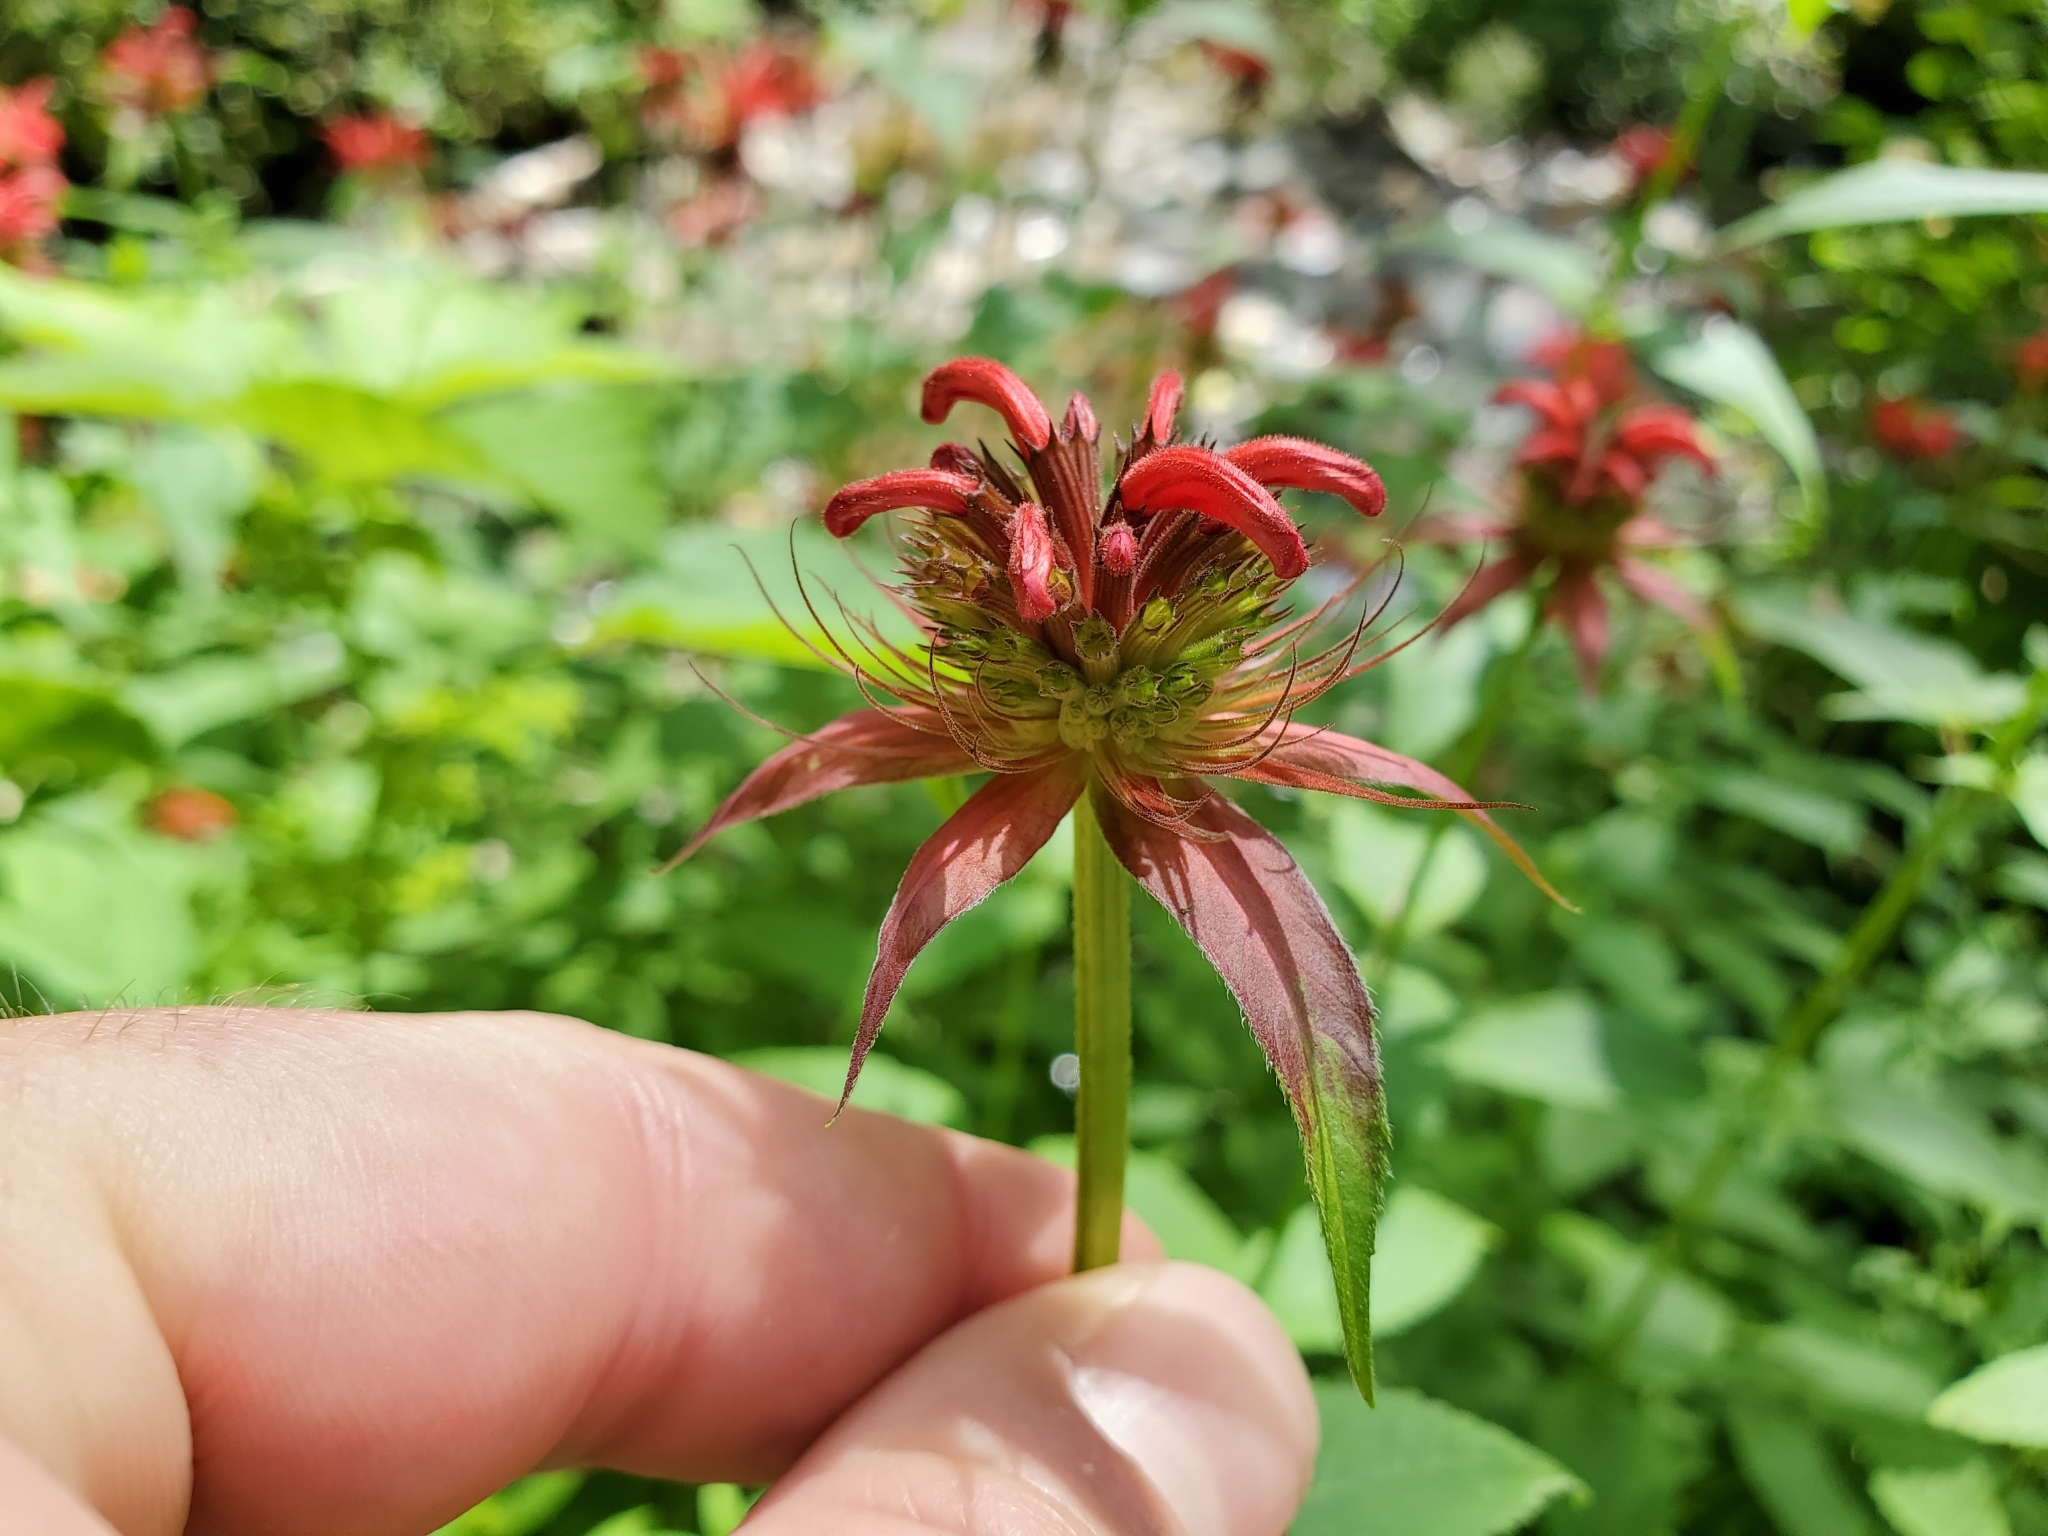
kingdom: Plantae
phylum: Tracheophyta
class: Magnoliopsida
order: Lamiales
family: Lamiaceae
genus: Monarda
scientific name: Monarda didyma
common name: Beebalm
